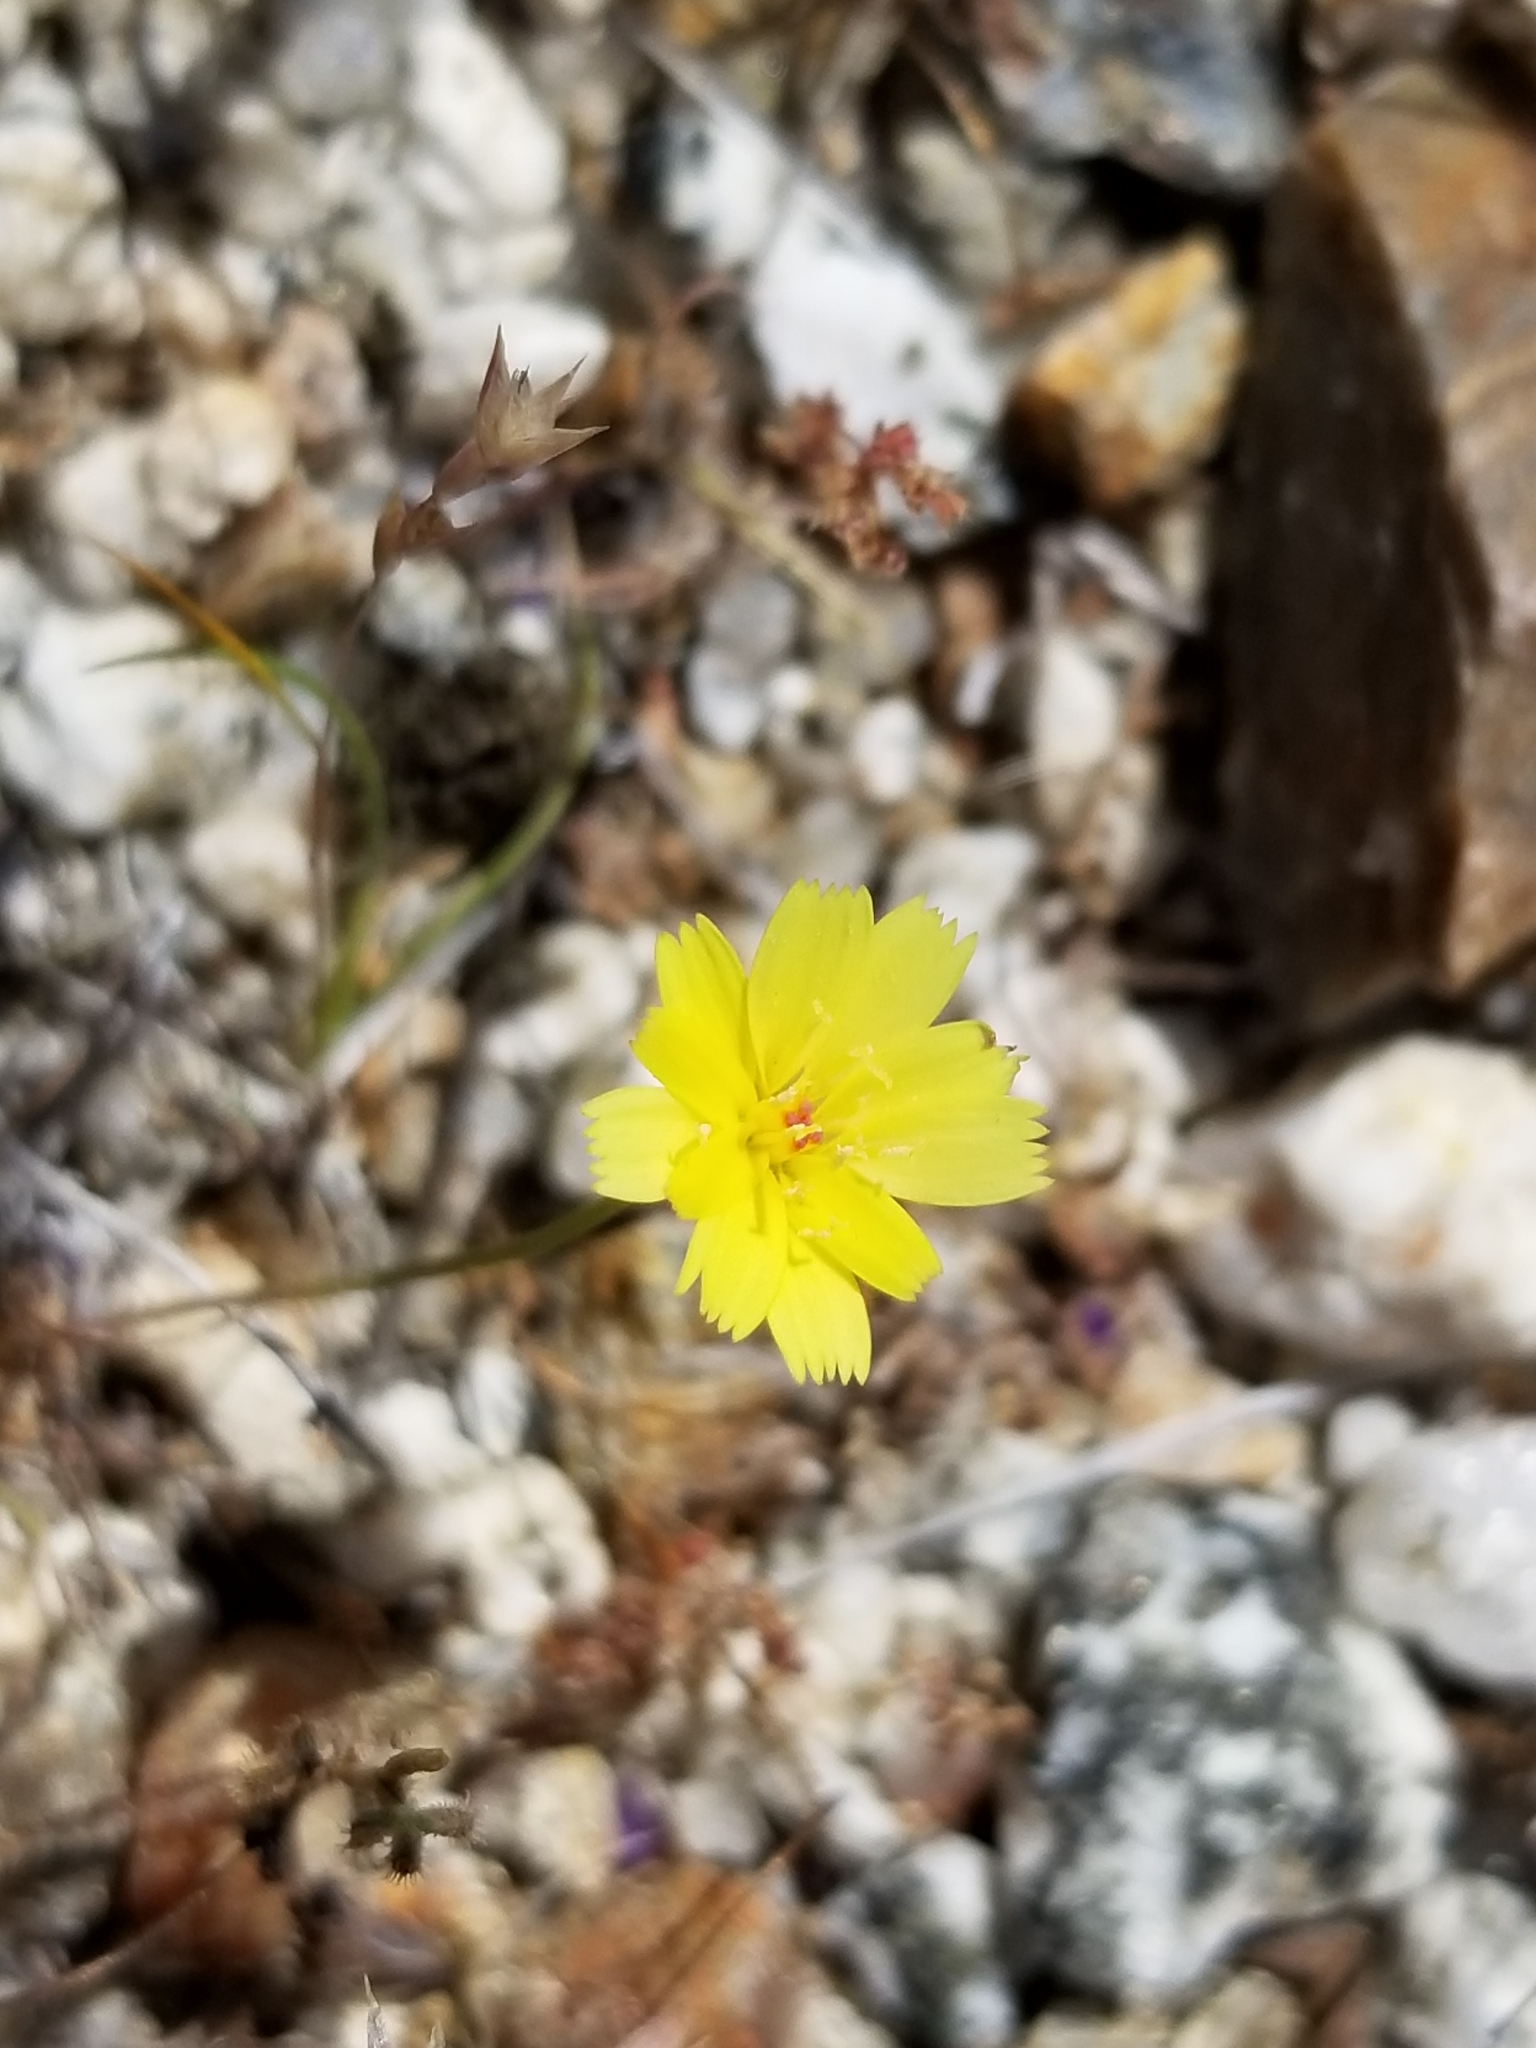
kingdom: Plantae
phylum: Tracheophyta
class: Magnoliopsida
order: Asterales
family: Asteraceae
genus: Malacothrix
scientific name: Malacothrix glabrata
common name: Smooth desert-dandelion
